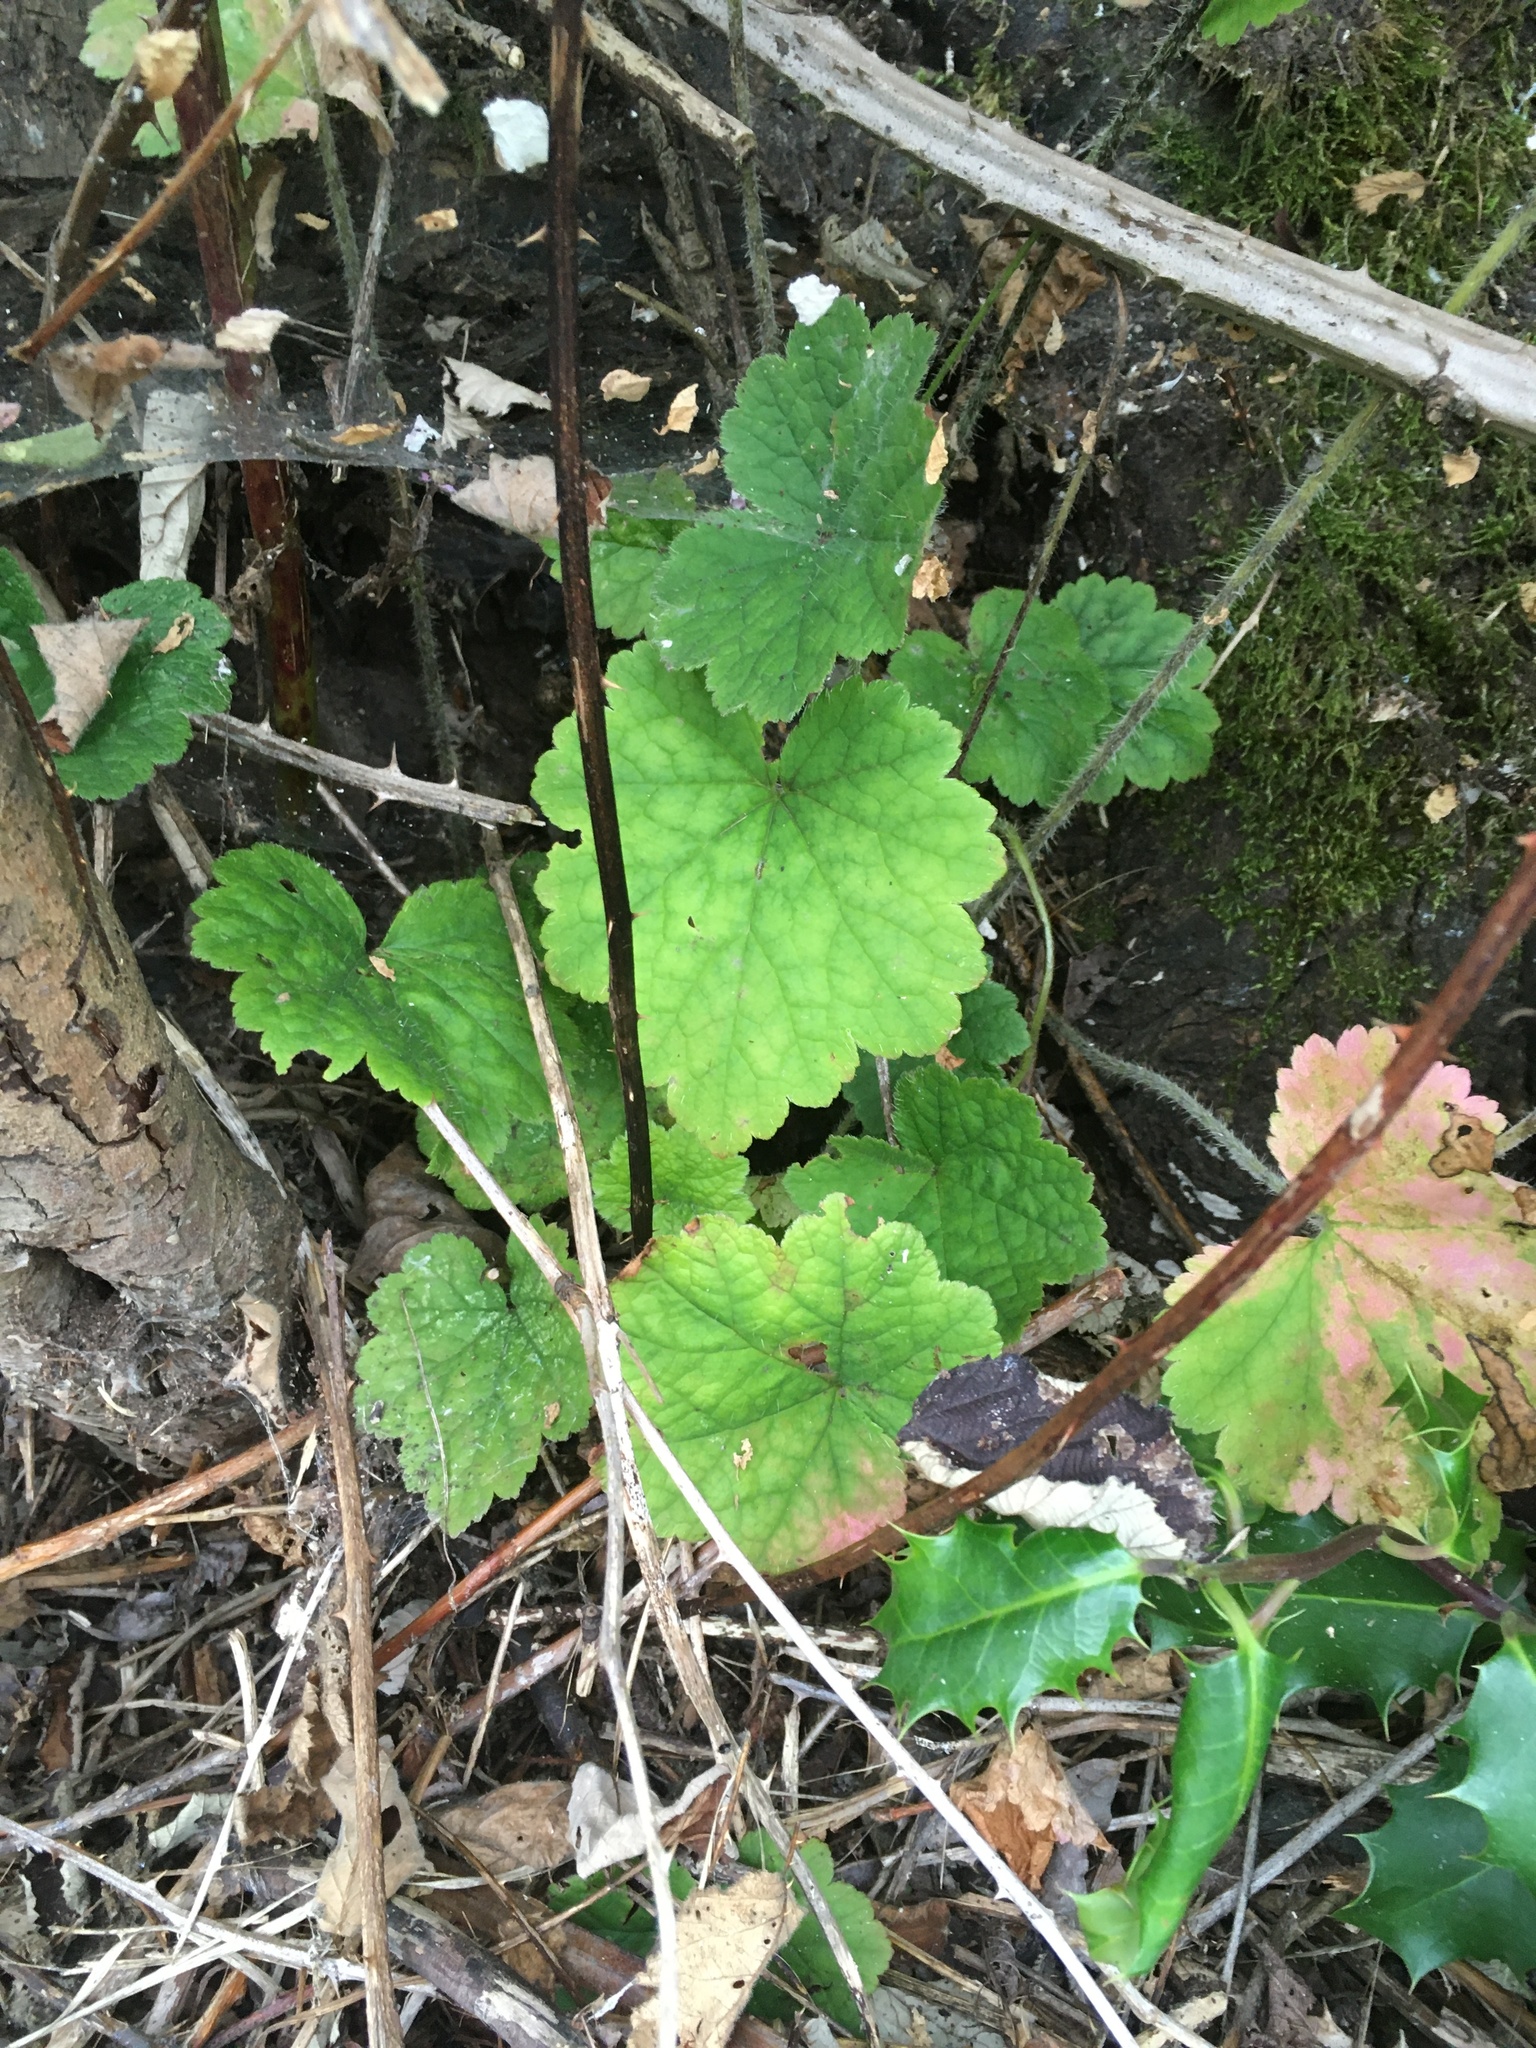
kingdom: Plantae
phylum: Tracheophyta
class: Magnoliopsida
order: Saxifragales
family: Saxifragaceae
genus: Tellima
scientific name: Tellima grandiflora
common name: Fringecups
